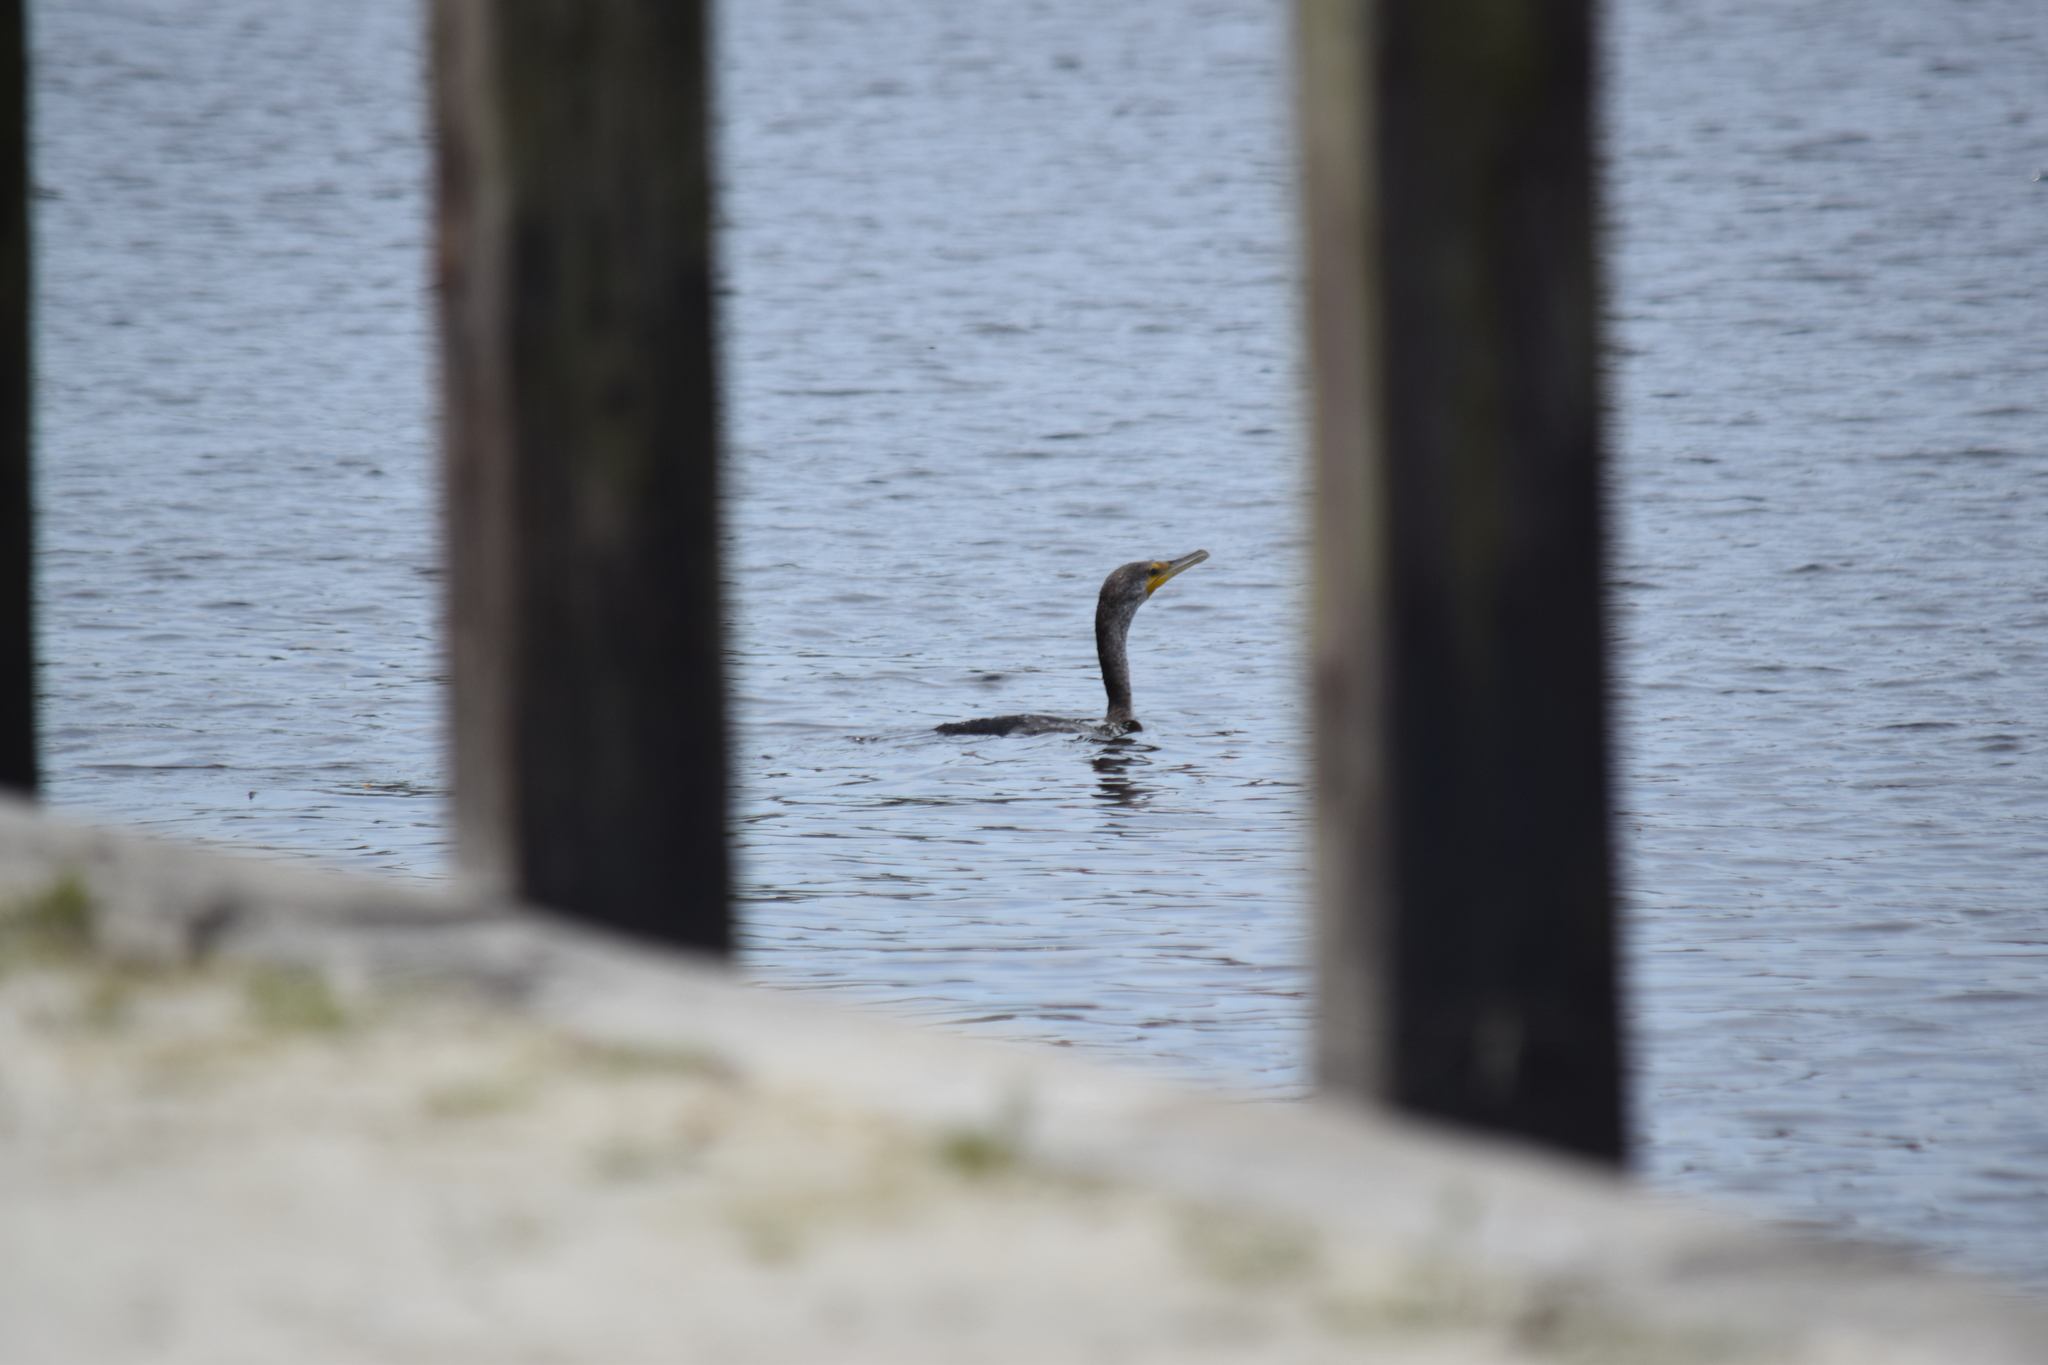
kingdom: Animalia
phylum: Chordata
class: Aves
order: Suliformes
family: Phalacrocoracidae
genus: Phalacrocorax
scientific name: Phalacrocorax auritus
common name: Double-crested cormorant
